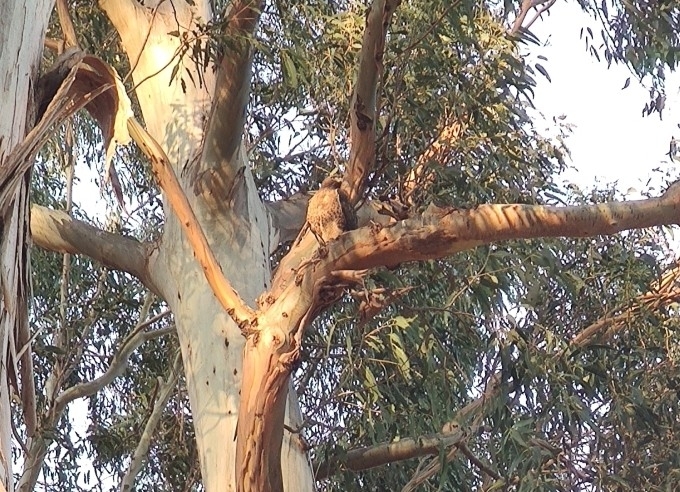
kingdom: Animalia
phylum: Chordata
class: Aves
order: Accipitriformes
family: Accipitridae
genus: Buteo
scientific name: Buteo jamaicensis
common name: Red-tailed hawk
